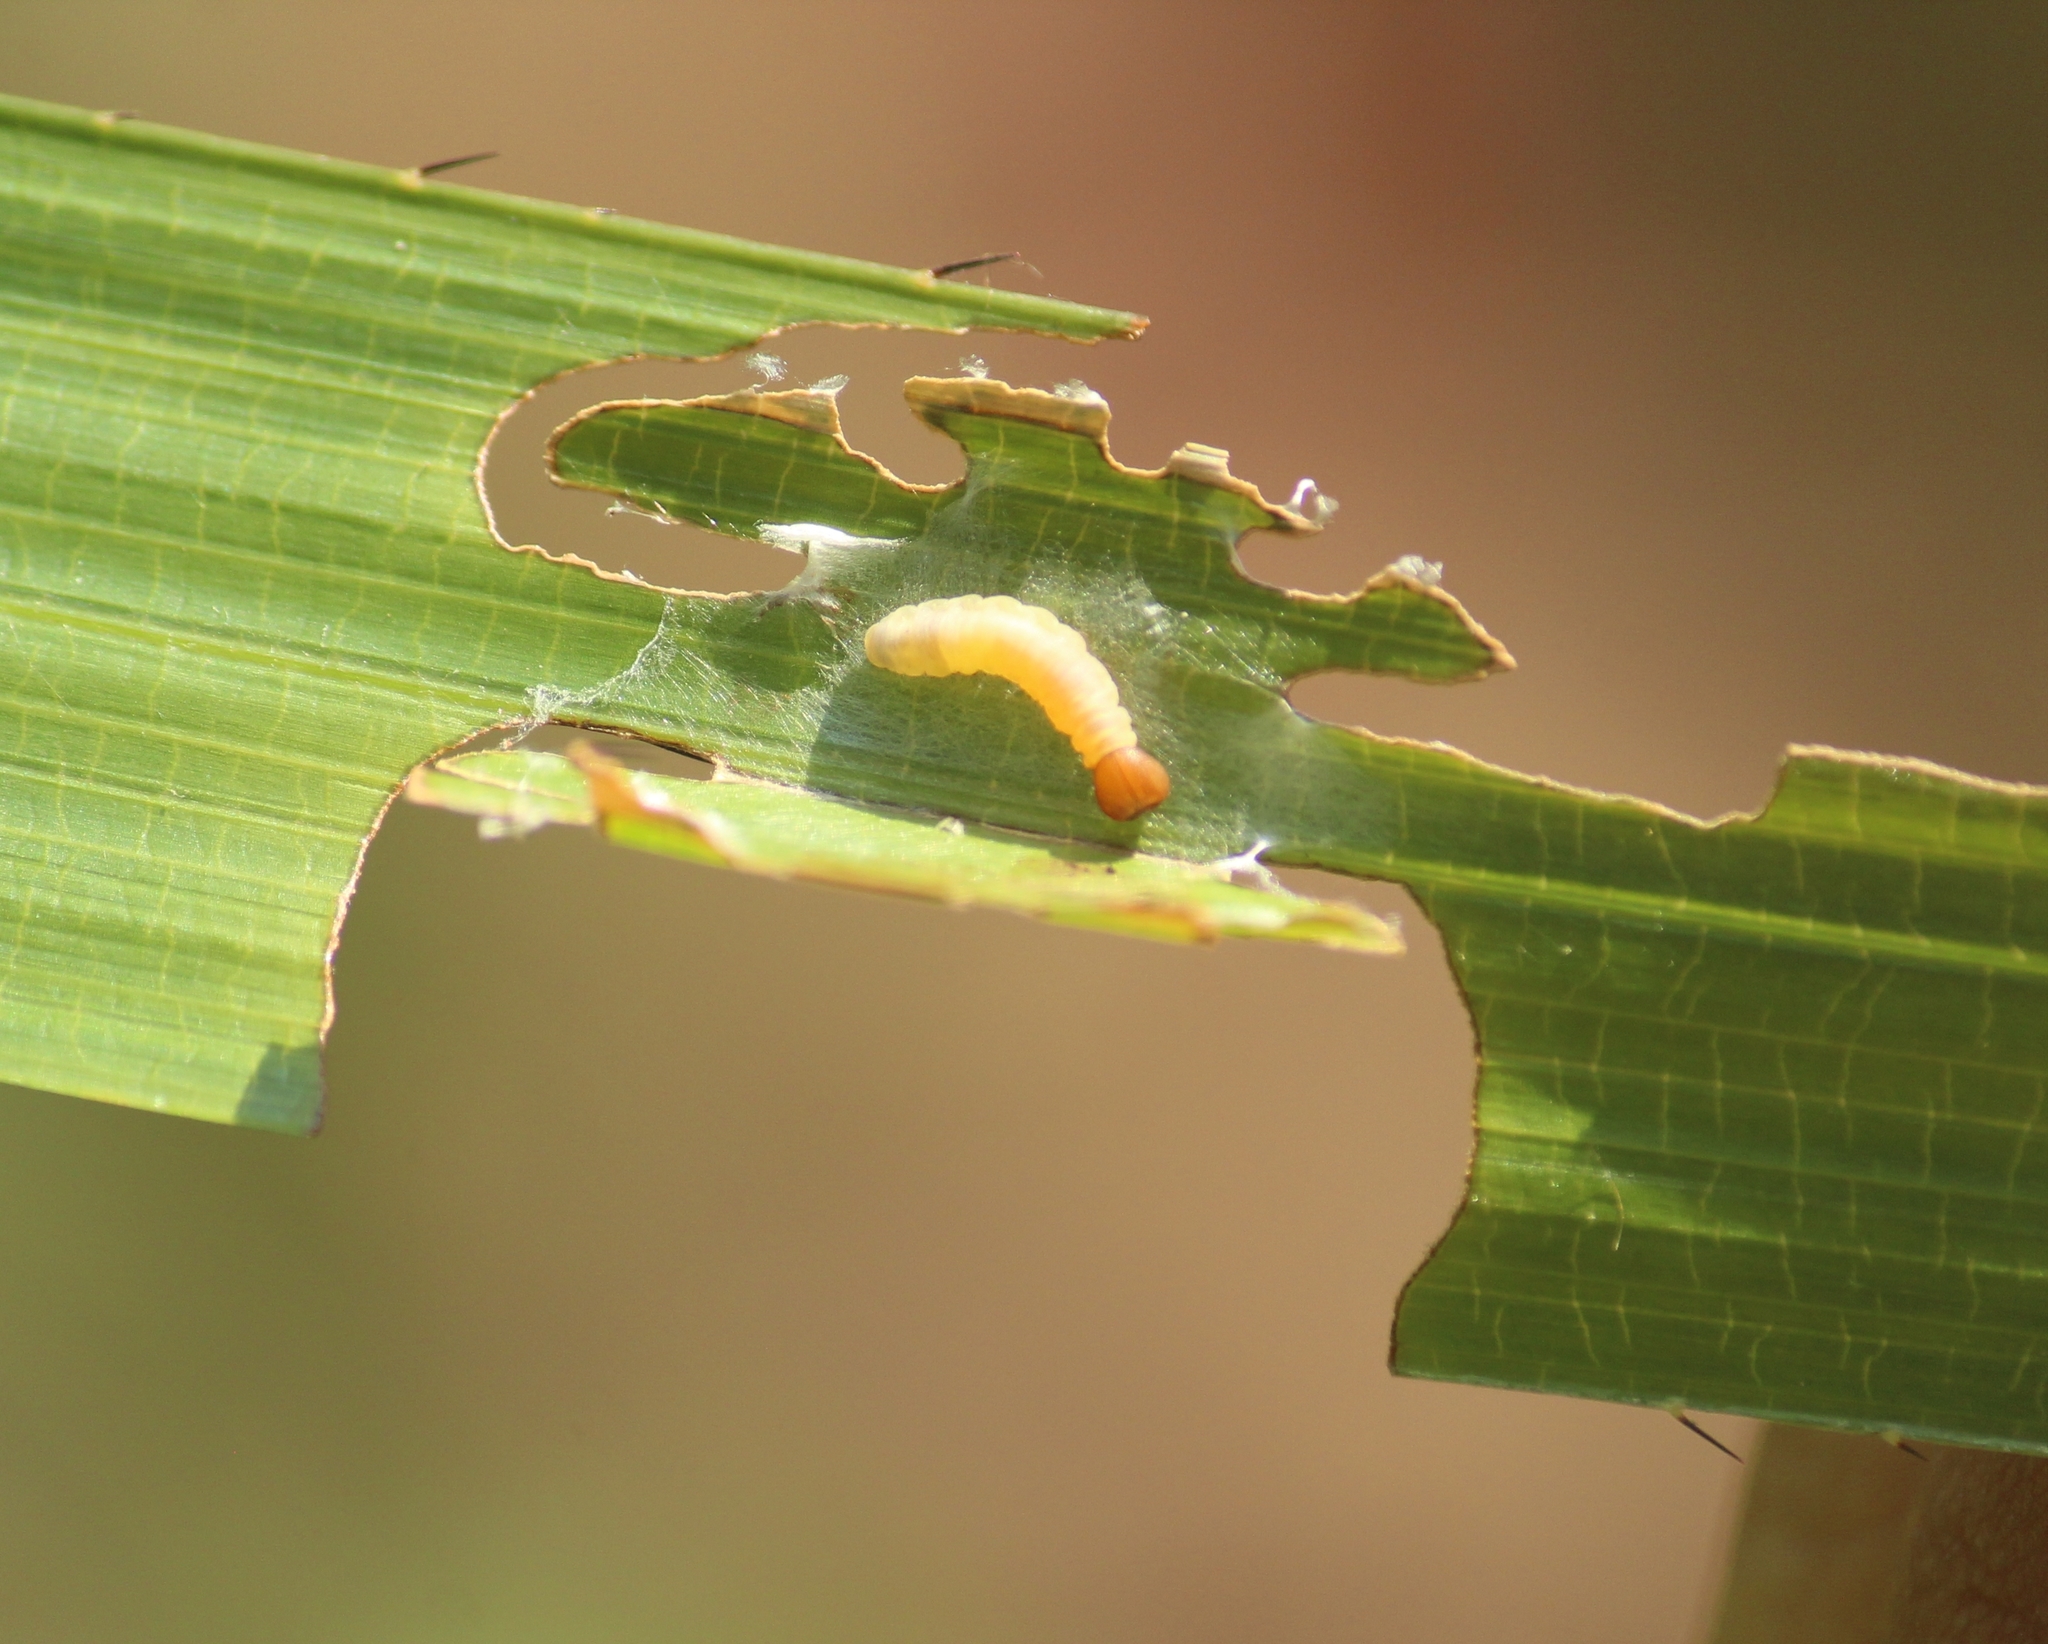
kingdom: Animalia
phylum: Arthropoda
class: Insecta
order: Lepidoptera
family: Hesperiidae
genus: Suastus
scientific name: Suastus minuta
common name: Small palm bob
